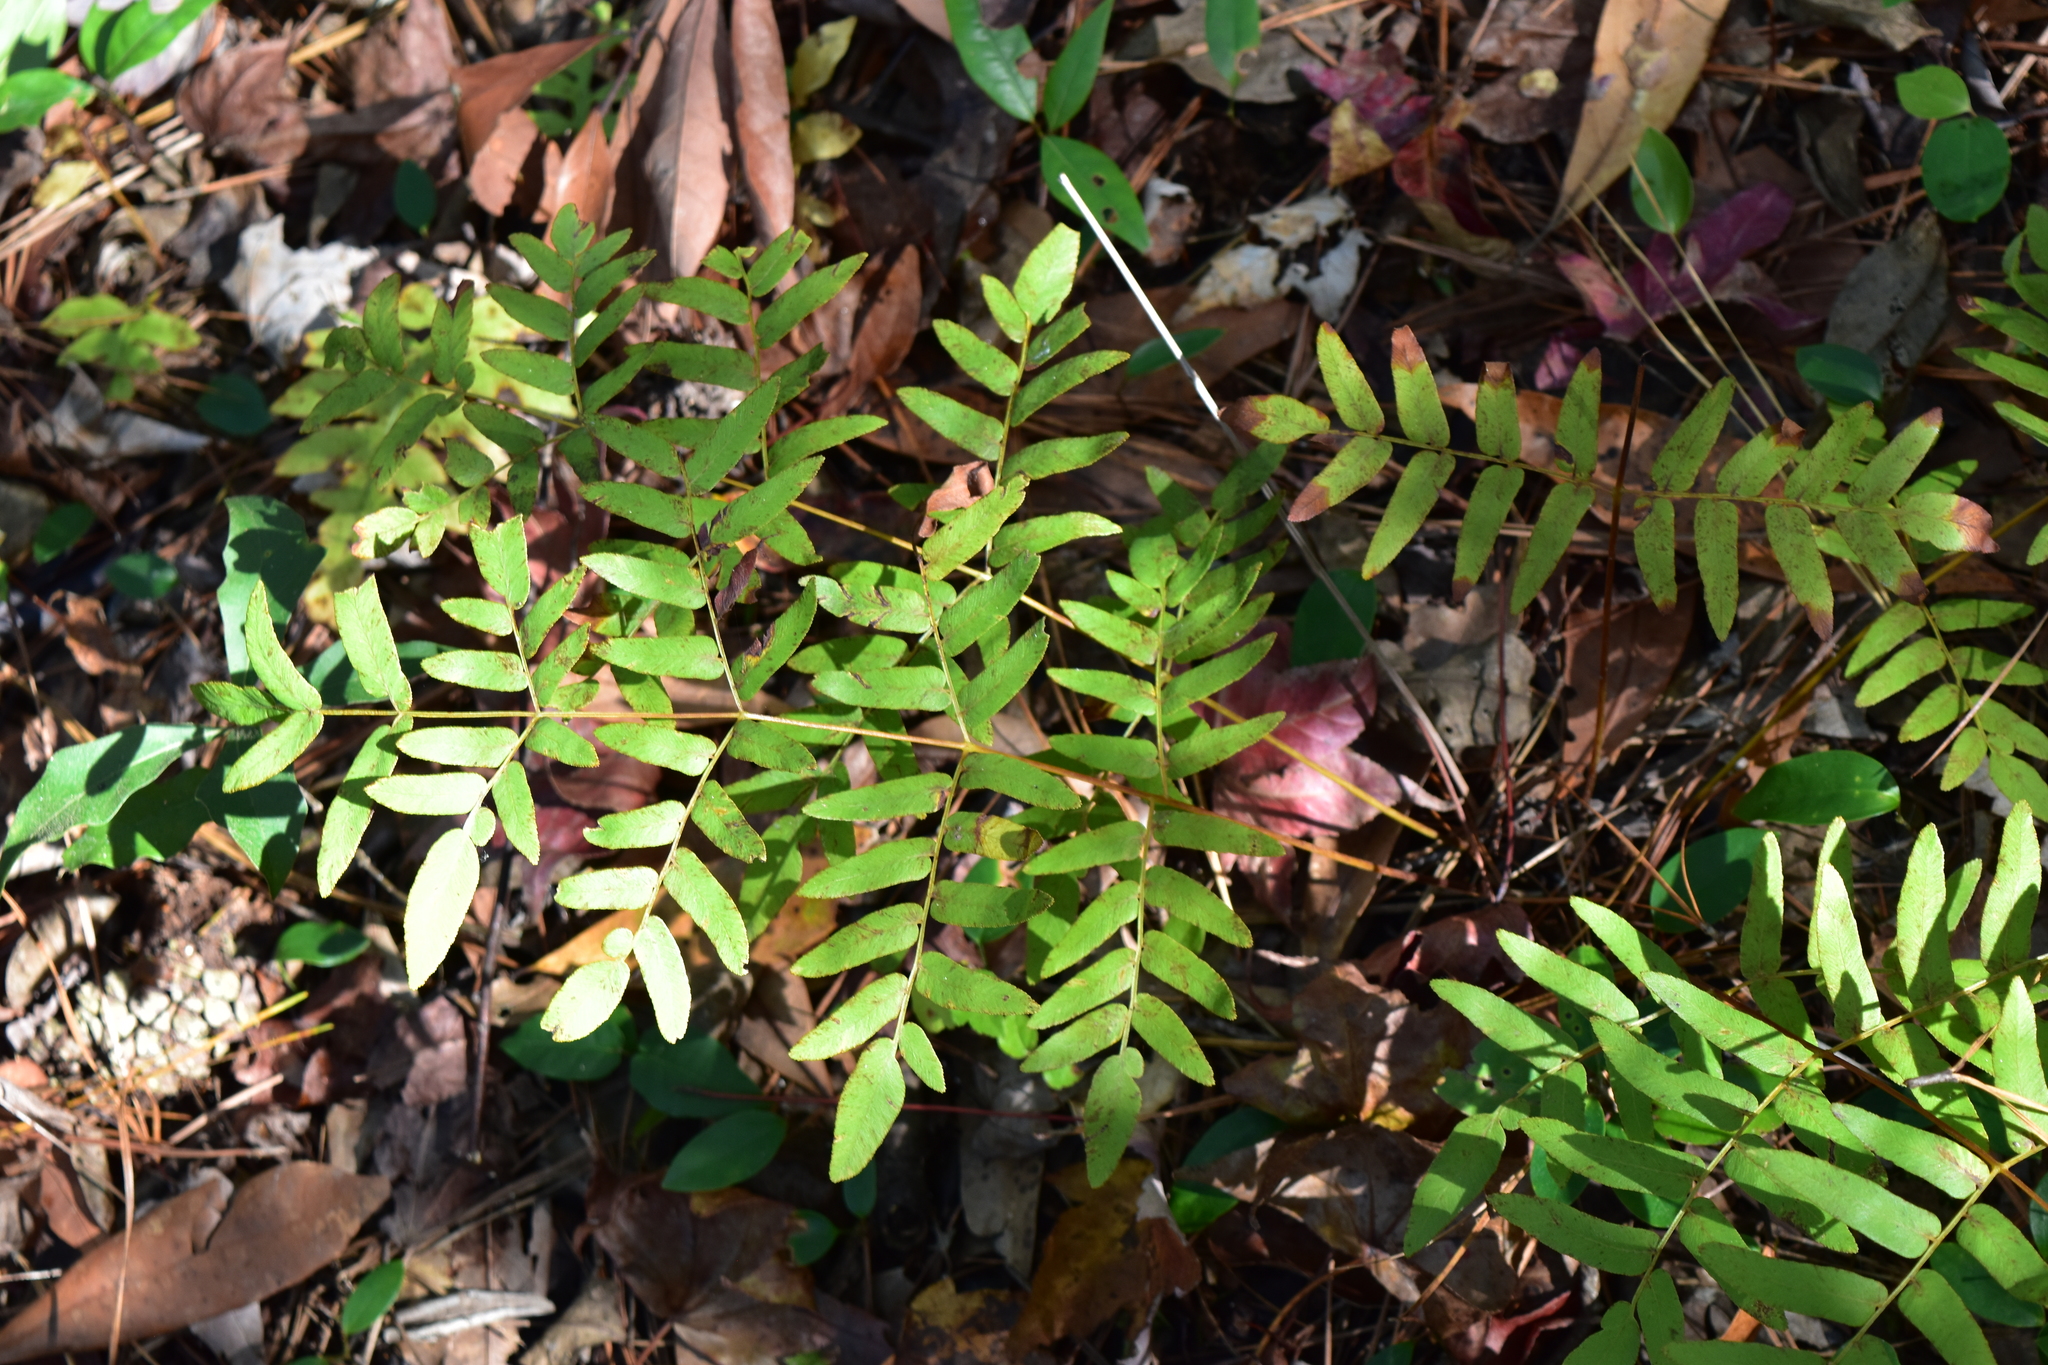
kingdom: Plantae
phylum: Tracheophyta
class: Polypodiopsida
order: Osmundales
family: Osmundaceae
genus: Osmunda
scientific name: Osmunda spectabilis
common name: American royal fern
